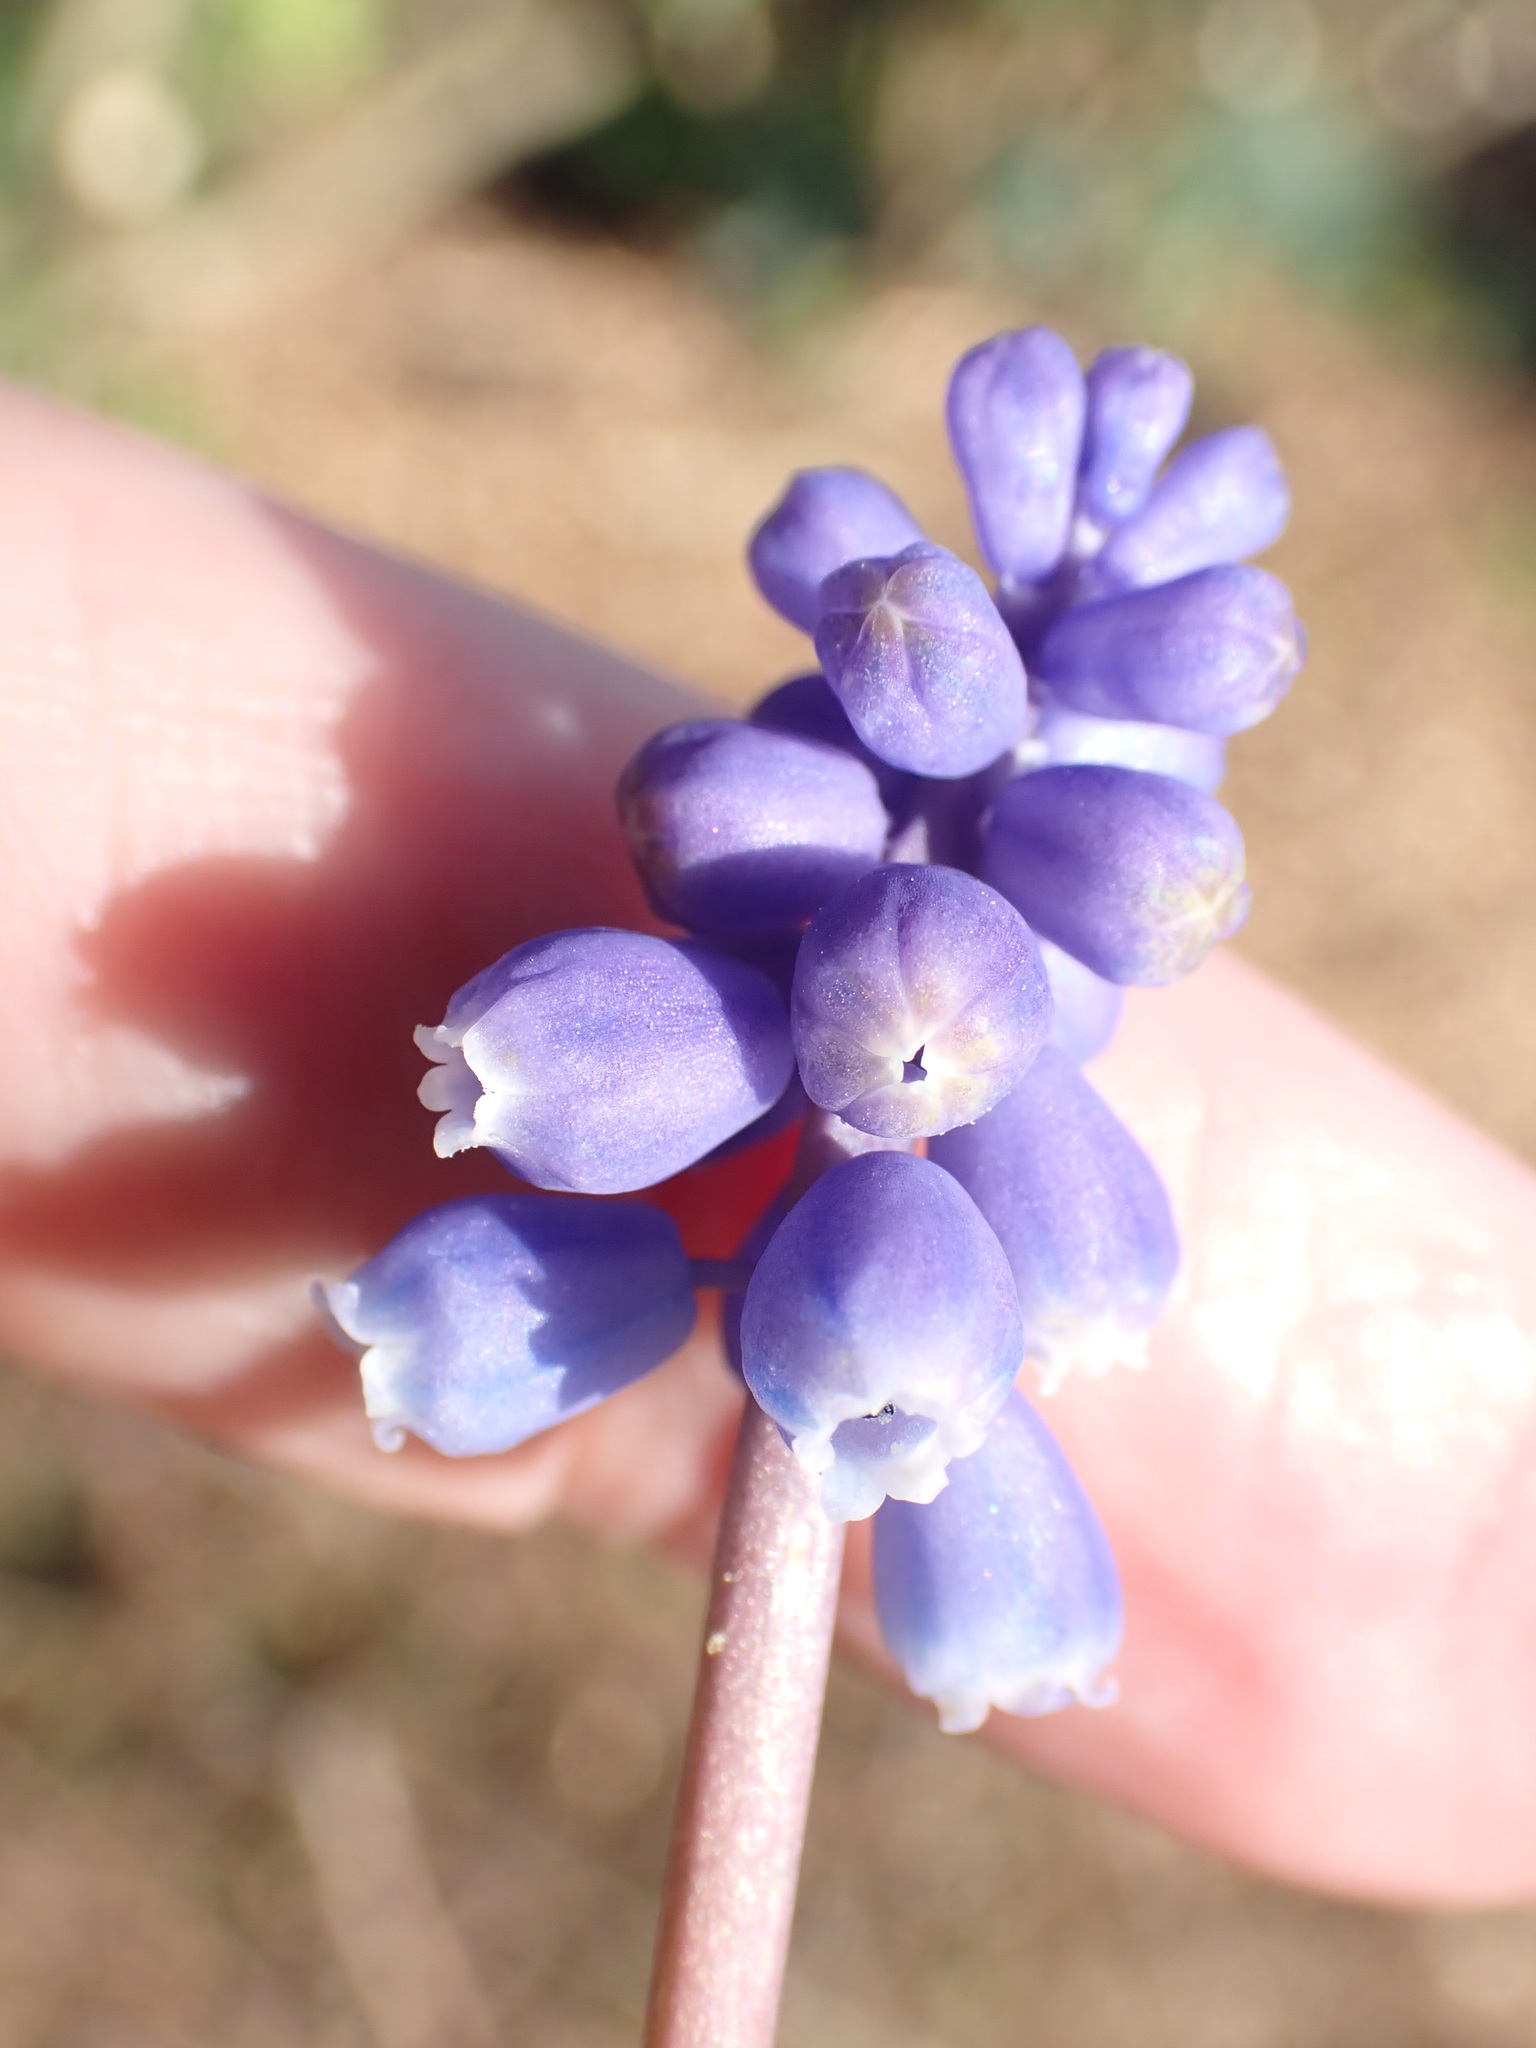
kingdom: Plantae
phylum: Tracheophyta
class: Liliopsida
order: Asparagales
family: Asparagaceae
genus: Muscari
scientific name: Muscari armeniacum
